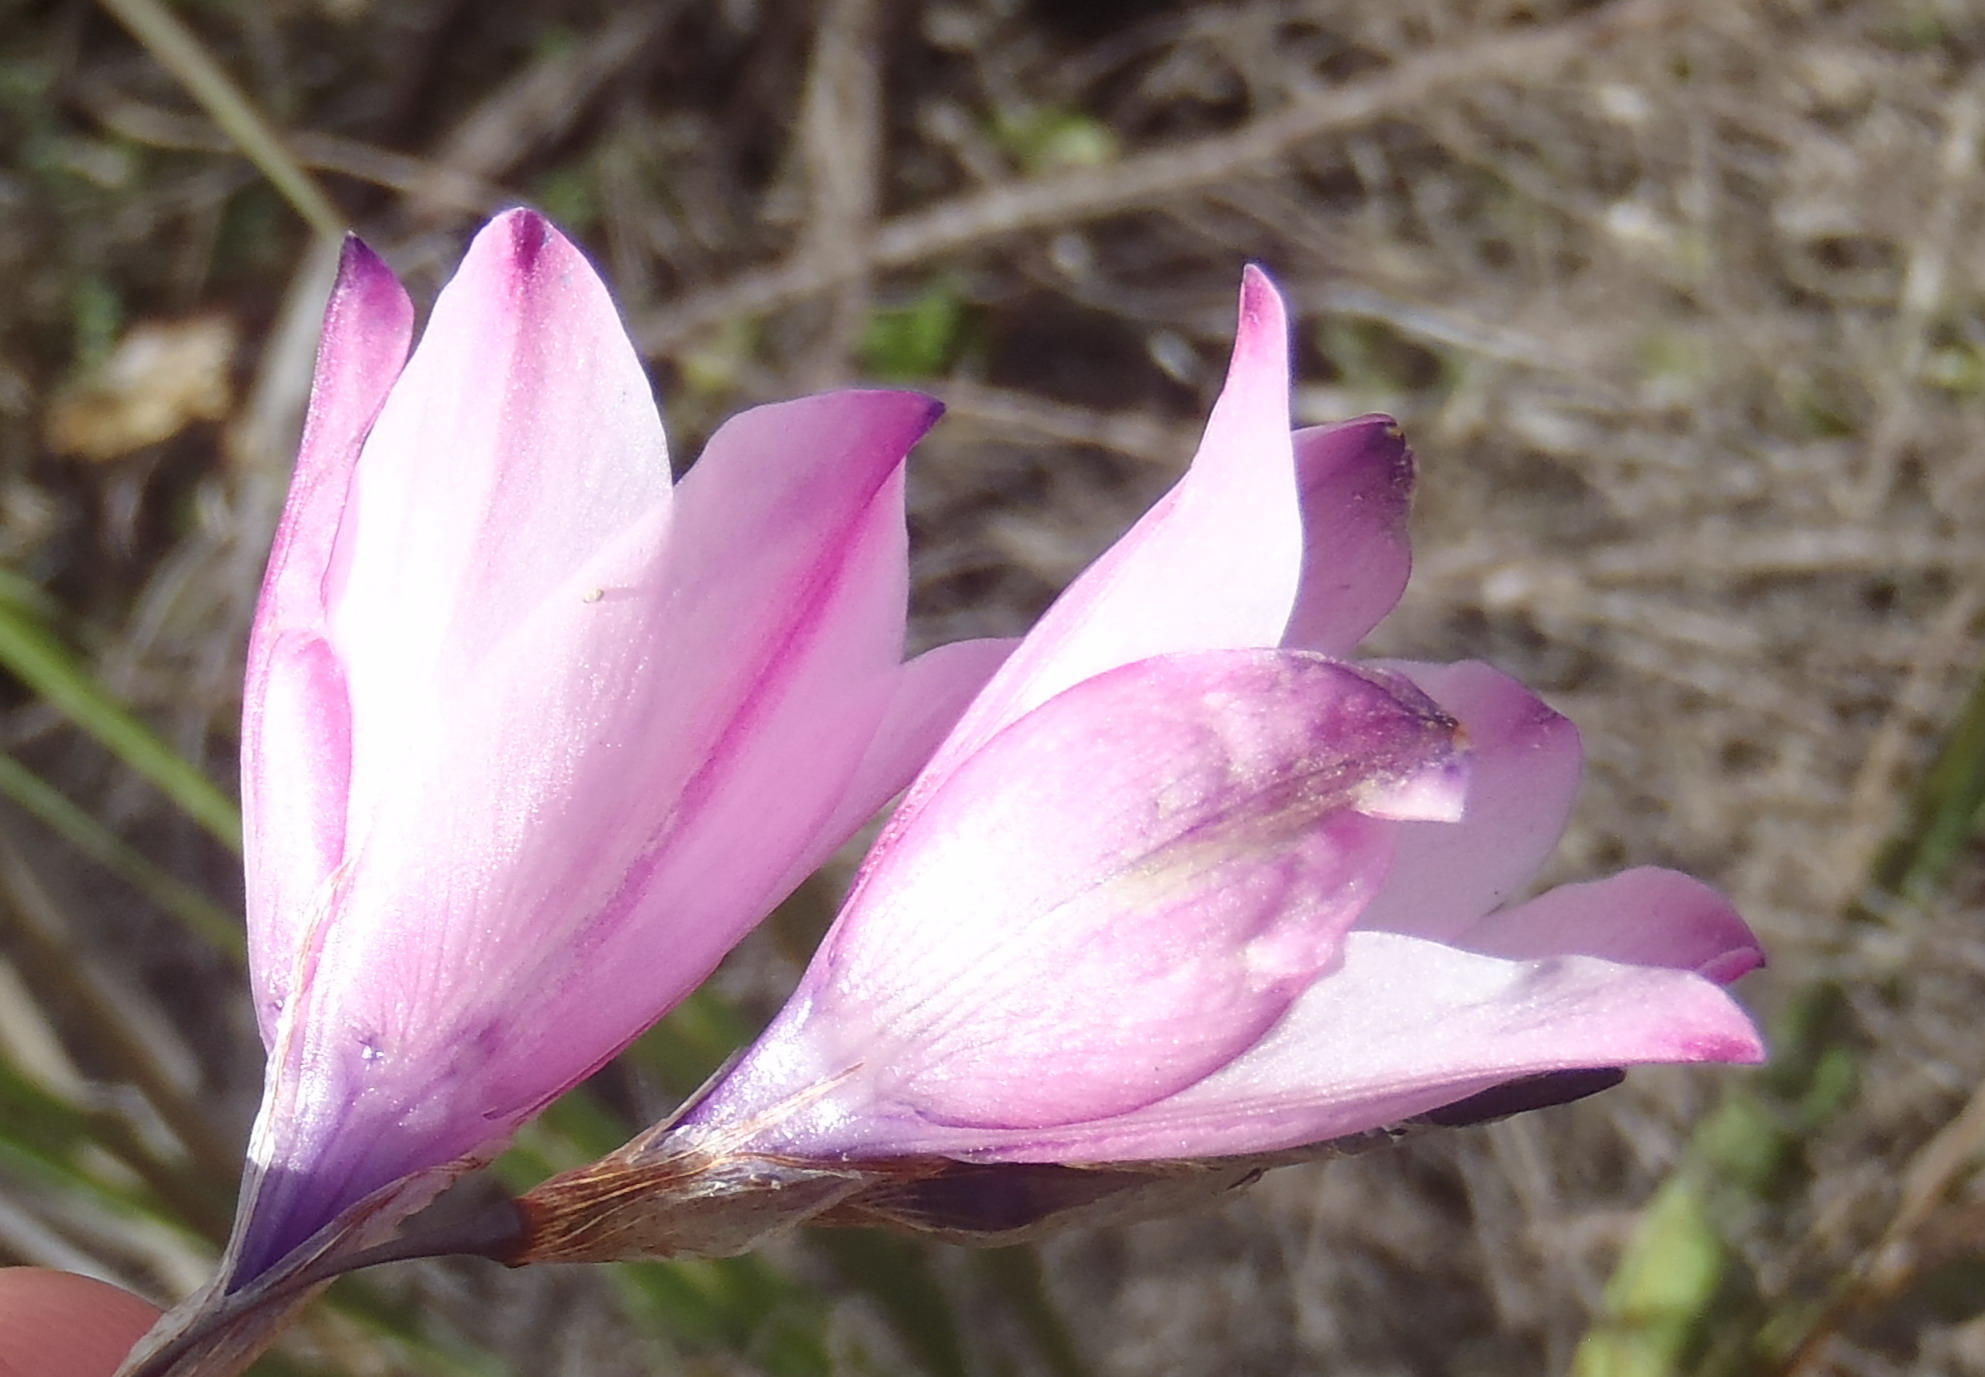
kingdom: Plantae
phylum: Tracheophyta
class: Liliopsida
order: Asparagales
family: Iridaceae
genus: Dierama
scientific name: Dierama pendulum
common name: Grassy-bell
